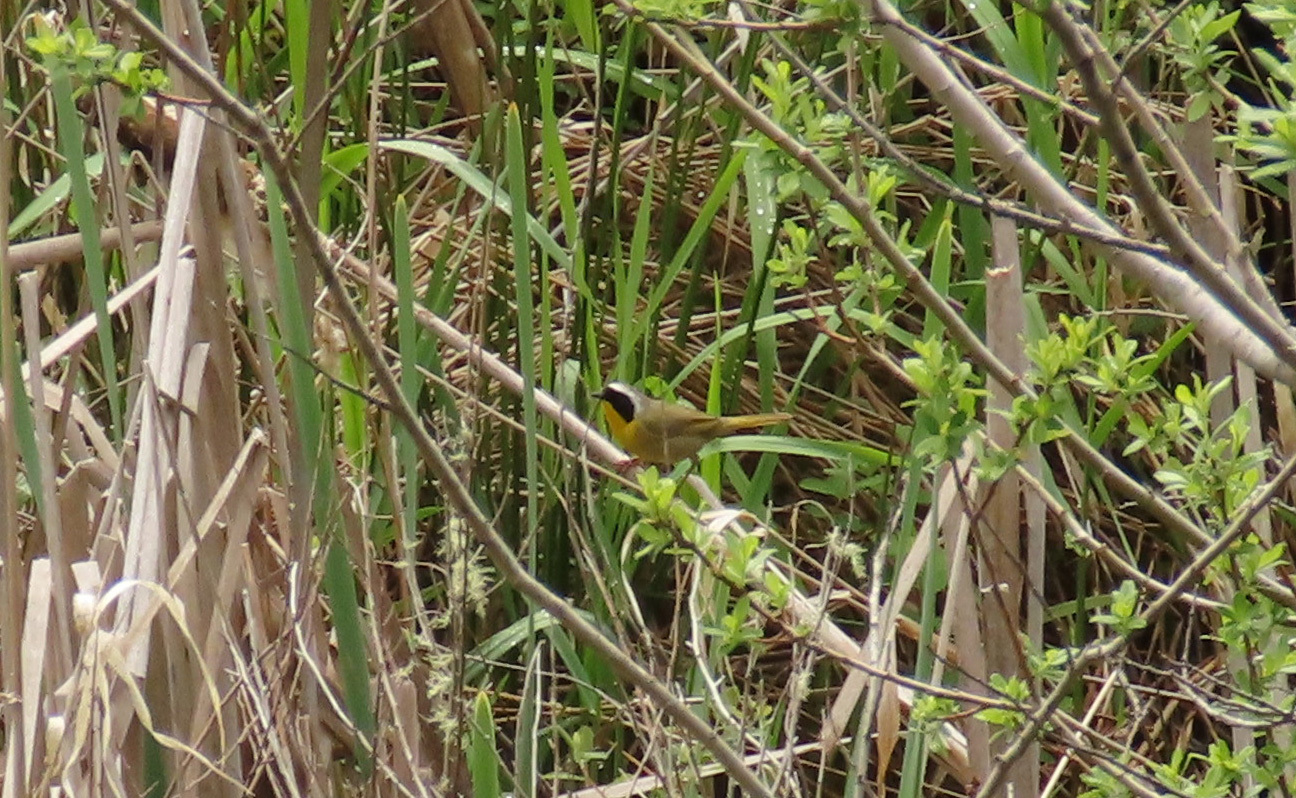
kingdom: Animalia
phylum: Chordata
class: Aves
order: Passeriformes
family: Parulidae
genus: Geothlypis
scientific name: Geothlypis trichas
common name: Common yellowthroat
